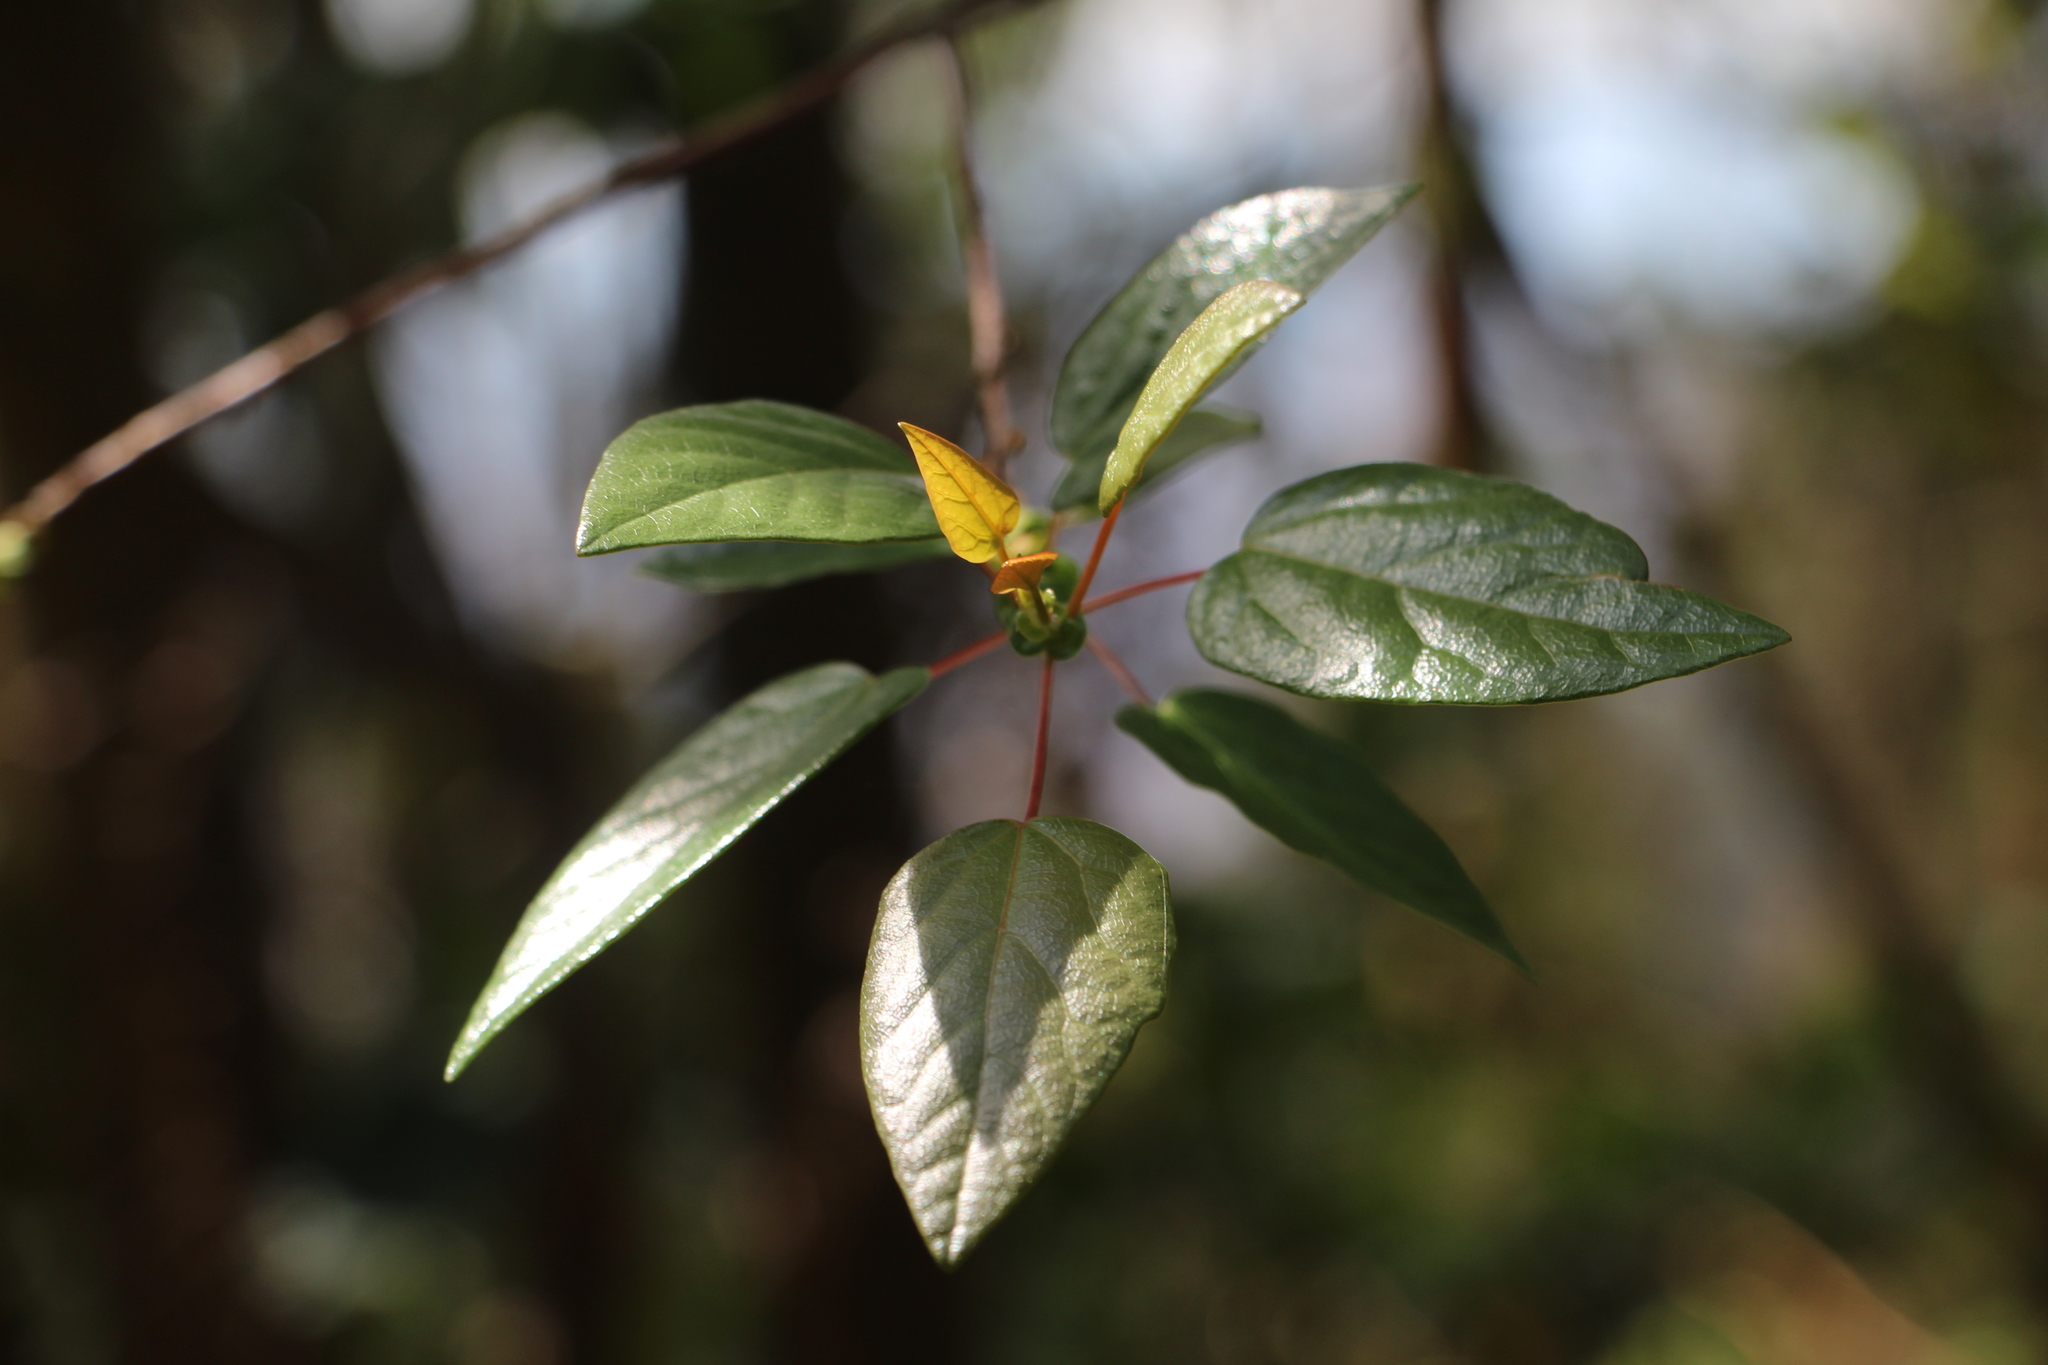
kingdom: Plantae
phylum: Tracheophyta
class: Magnoliopsida
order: Oxalidales
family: Elaeocarpaceae
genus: Vallea
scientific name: Vallea stipularis
